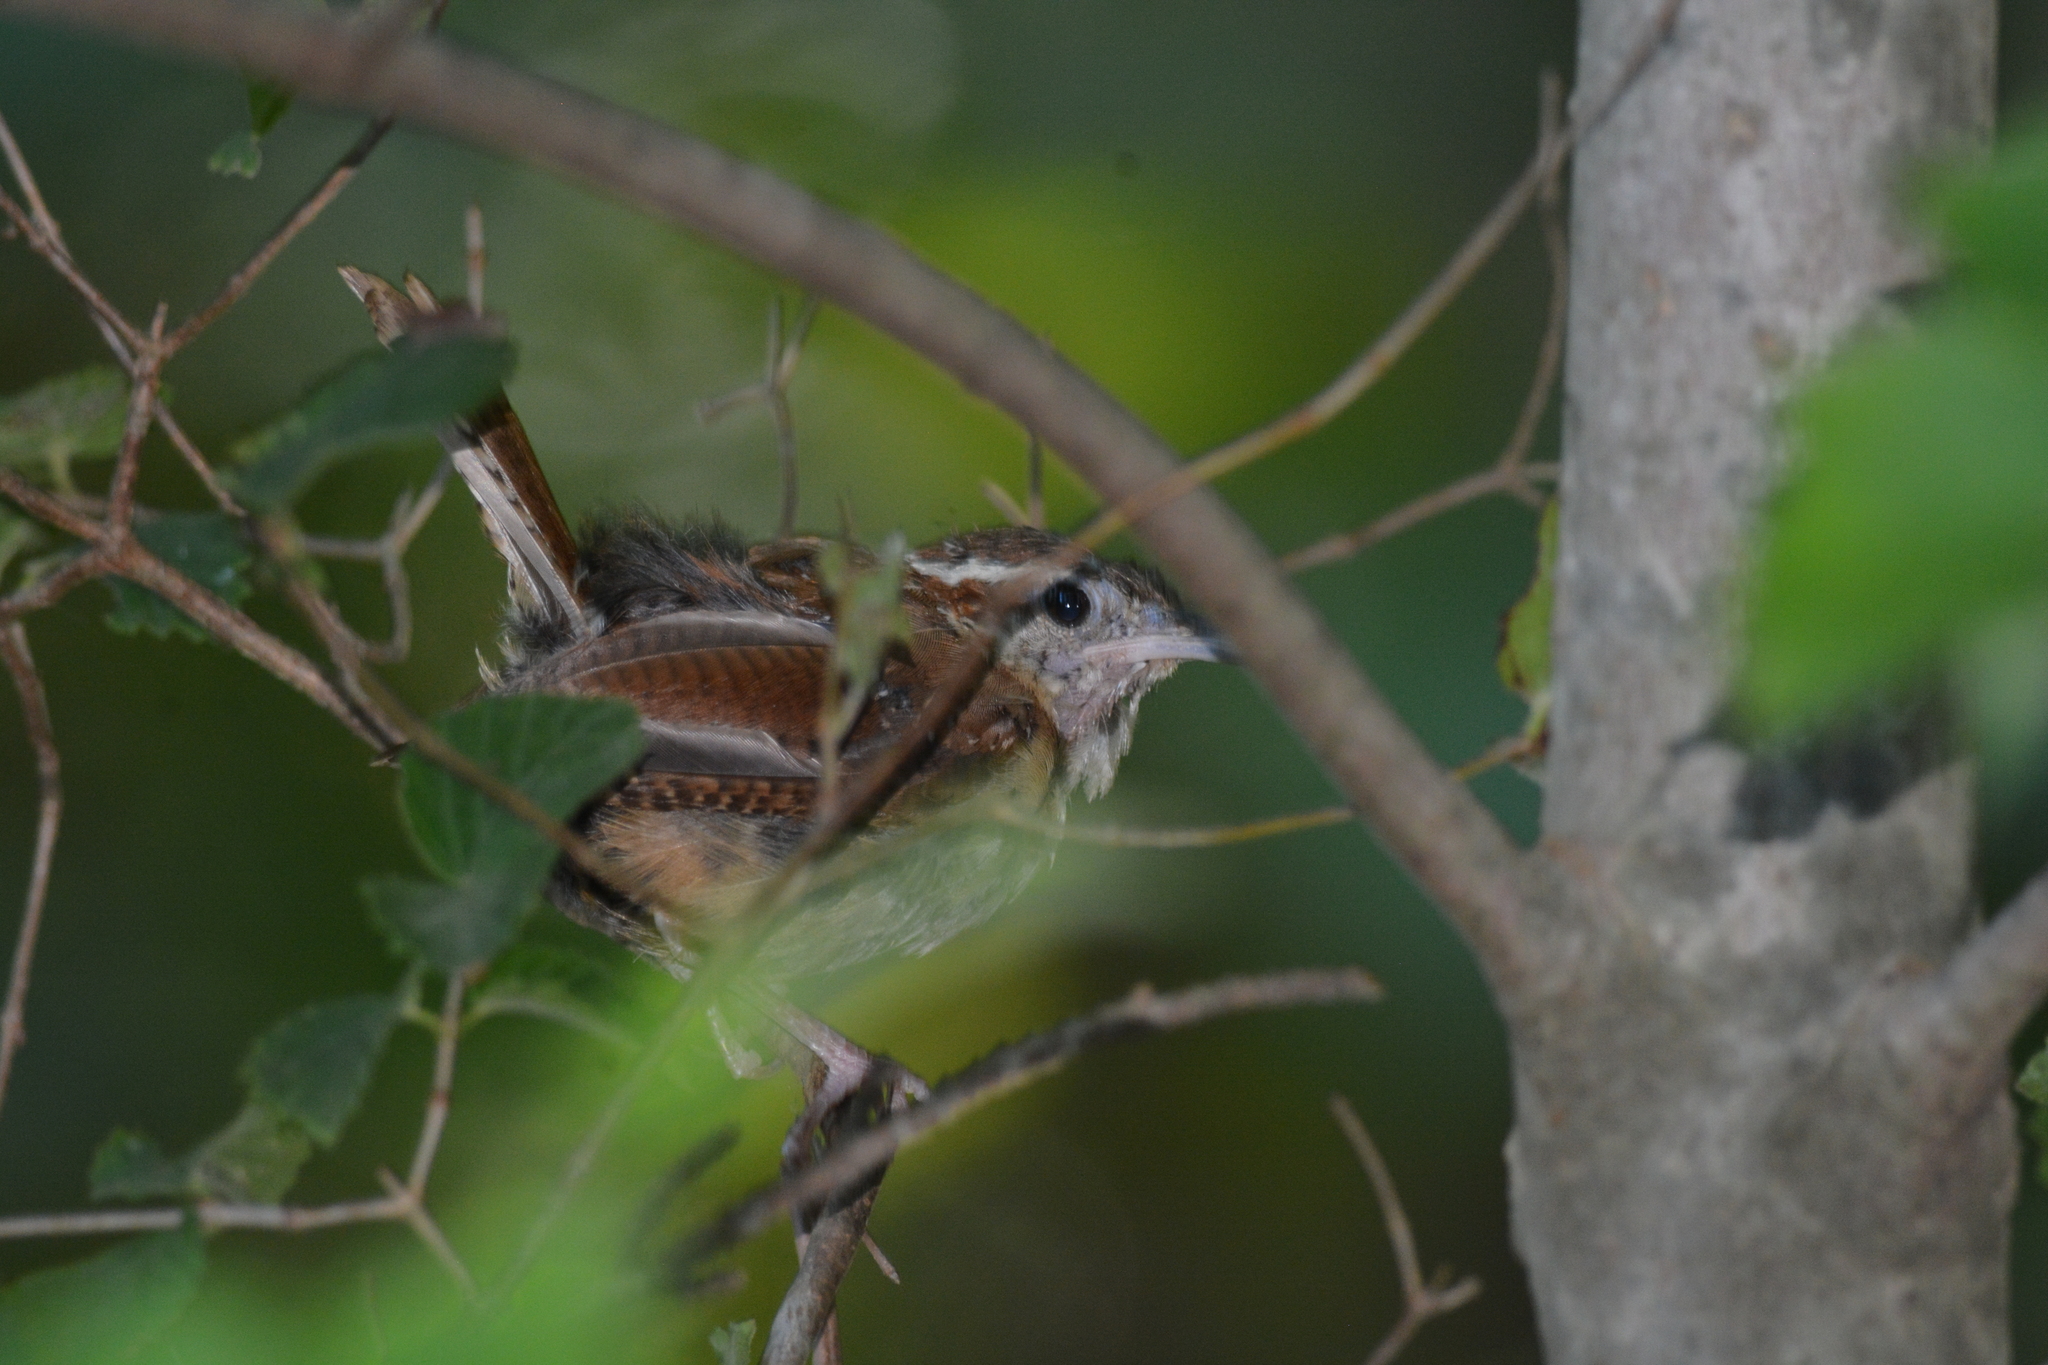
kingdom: Animalia
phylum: Chordata
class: Aves
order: Passeriformes
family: Troglodytidae
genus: Thryothorus
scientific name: Thryothorus ludovicianus
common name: Carolina wren
